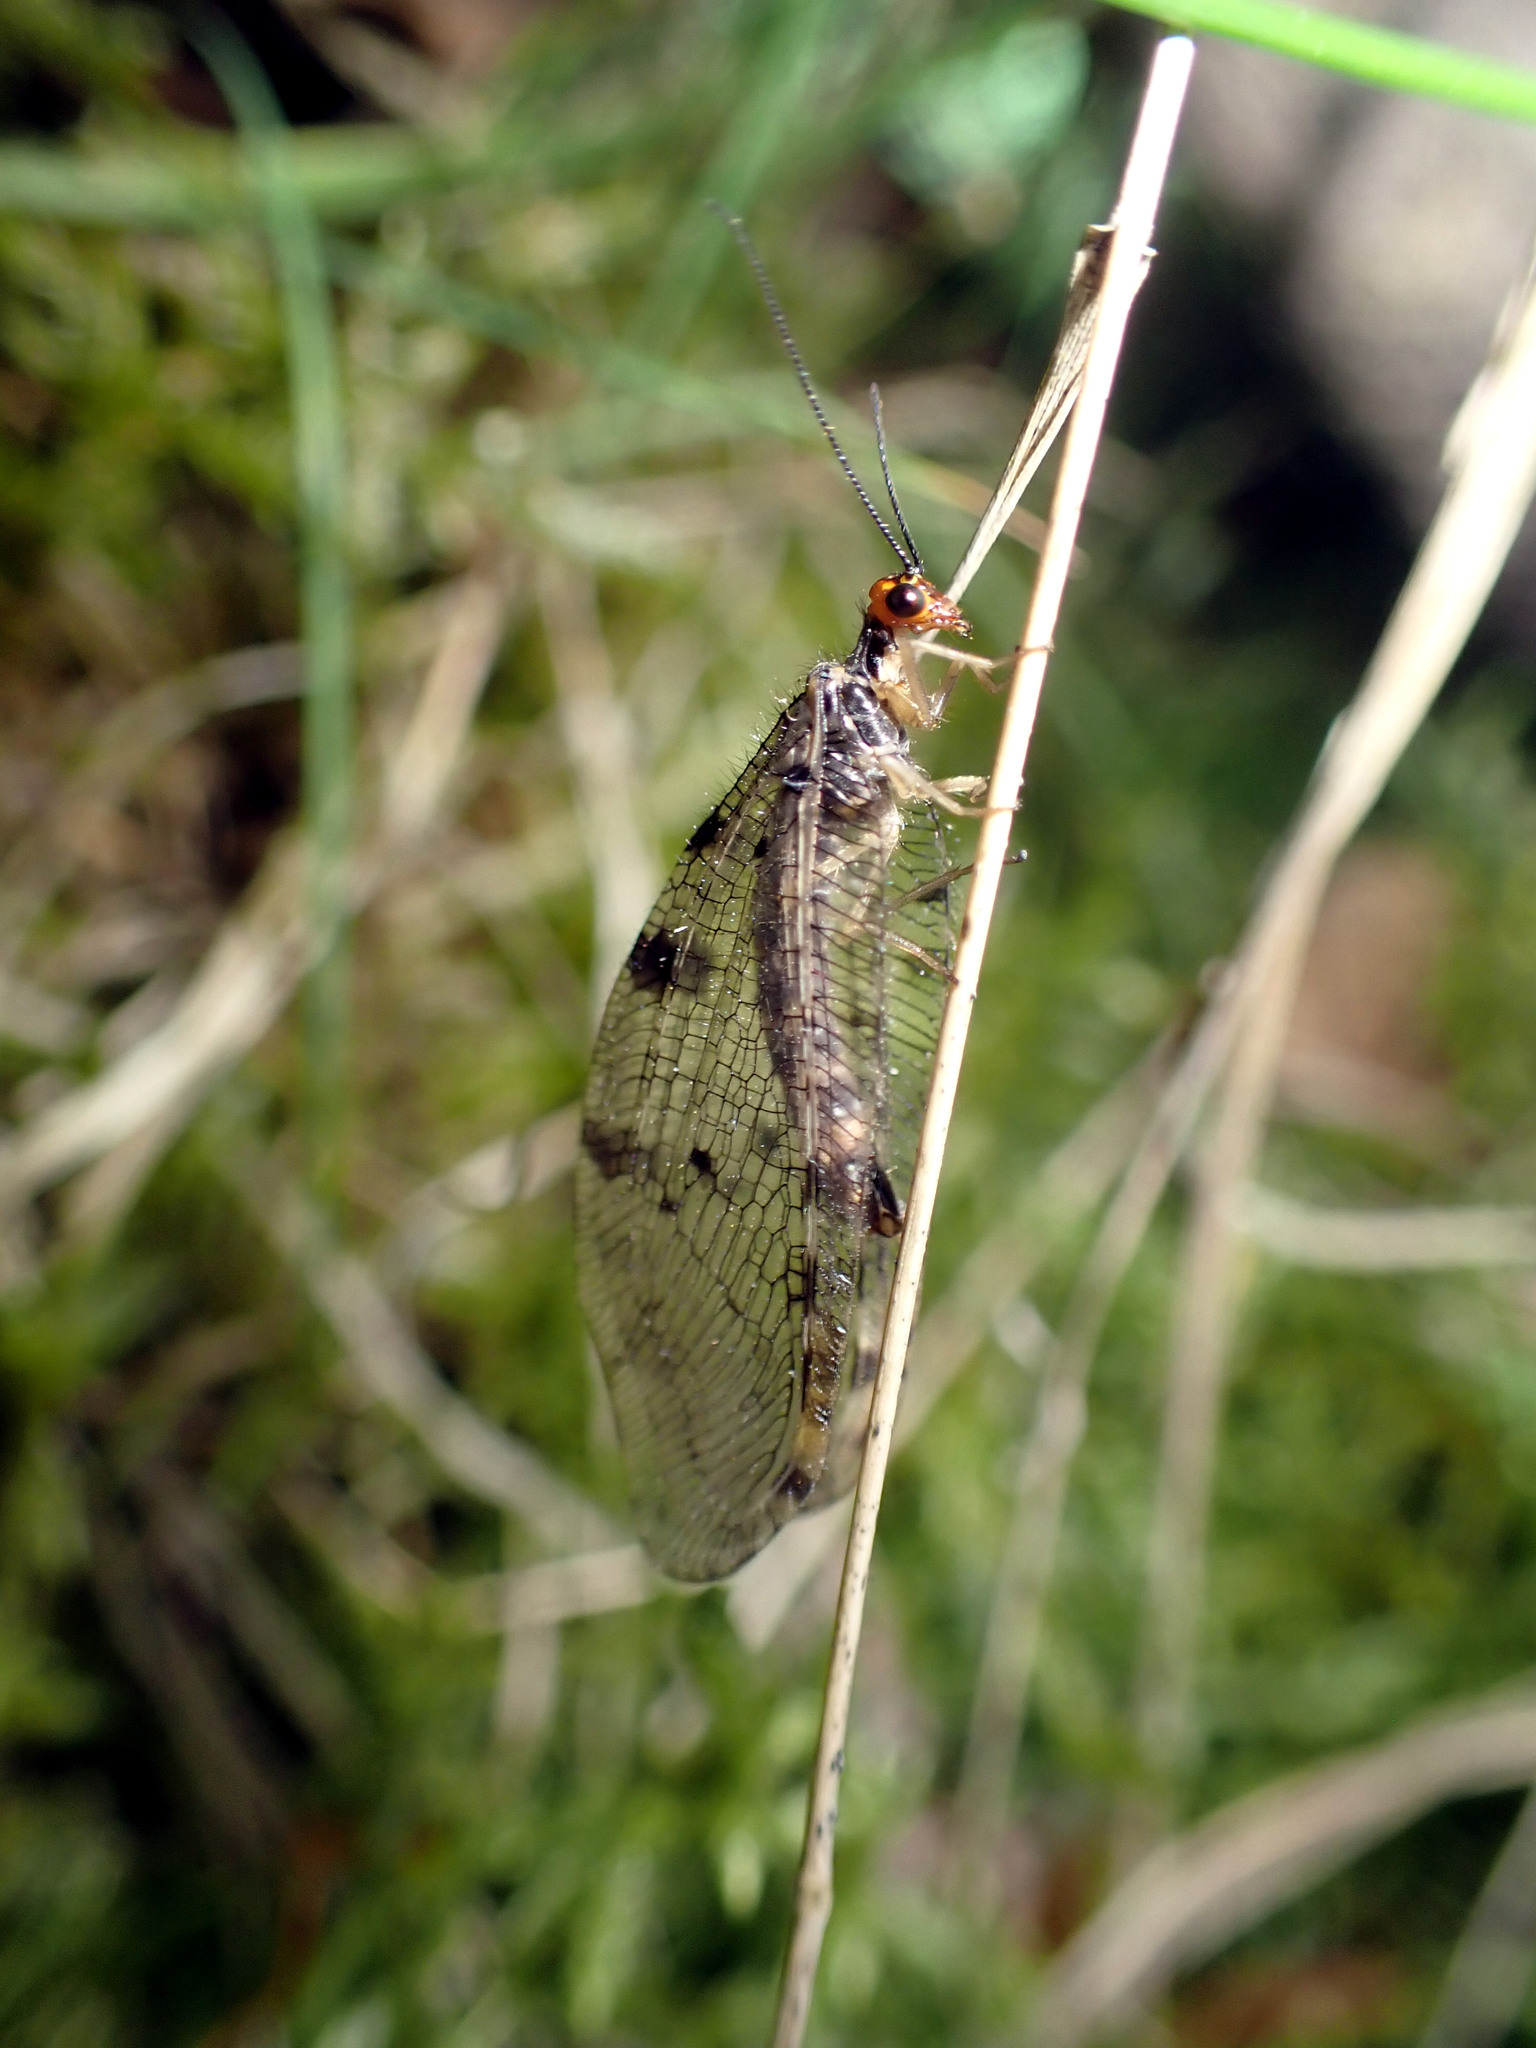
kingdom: Animalia
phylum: Arthropoda
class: Insecta
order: Neuroptera
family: Osmylidae
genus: Osmylus
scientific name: Osmylus fulvicephalus
